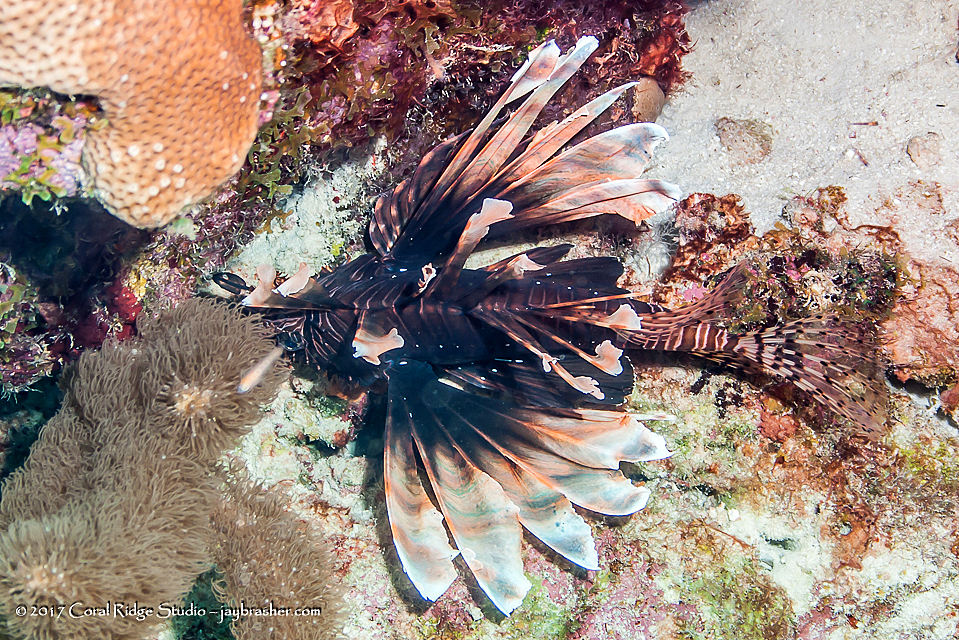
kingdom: Animalia
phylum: Chordata
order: Scorpaeniformes
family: Scorpaenidae
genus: Pterois
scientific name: Pterois volitans
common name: Lionfish
